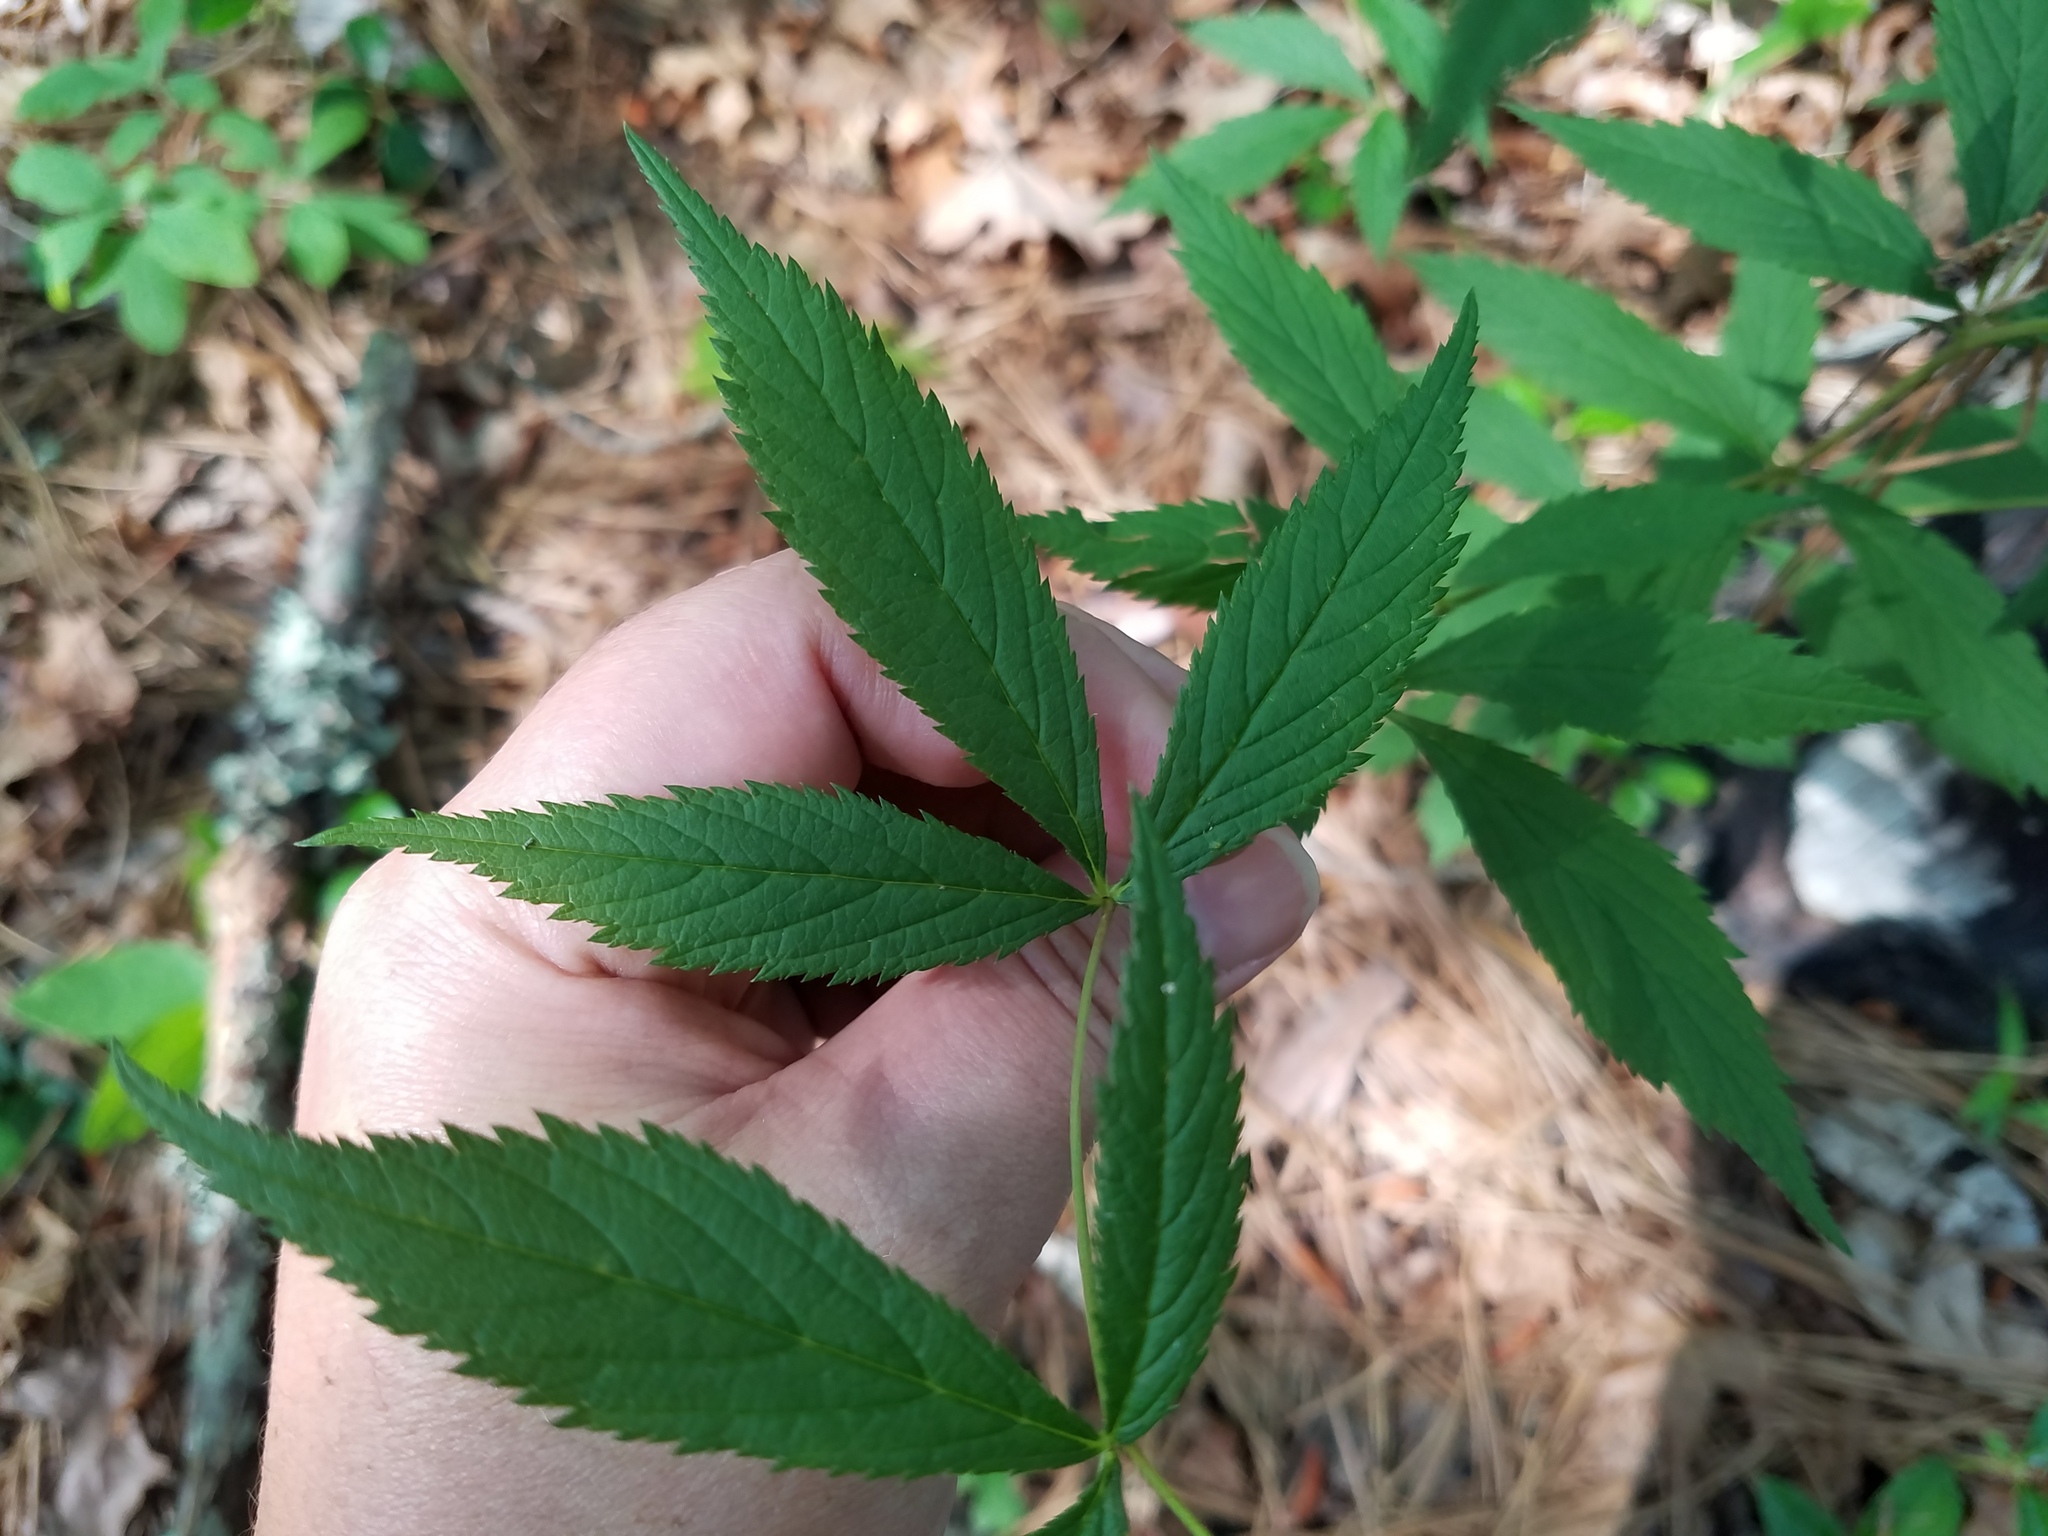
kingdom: Plantae
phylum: Tracheophyta
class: Magnoliopsida
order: Rosales
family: Rosaceae
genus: Gillenia
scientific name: Gillenia trifoliata
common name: Bowman's-root
